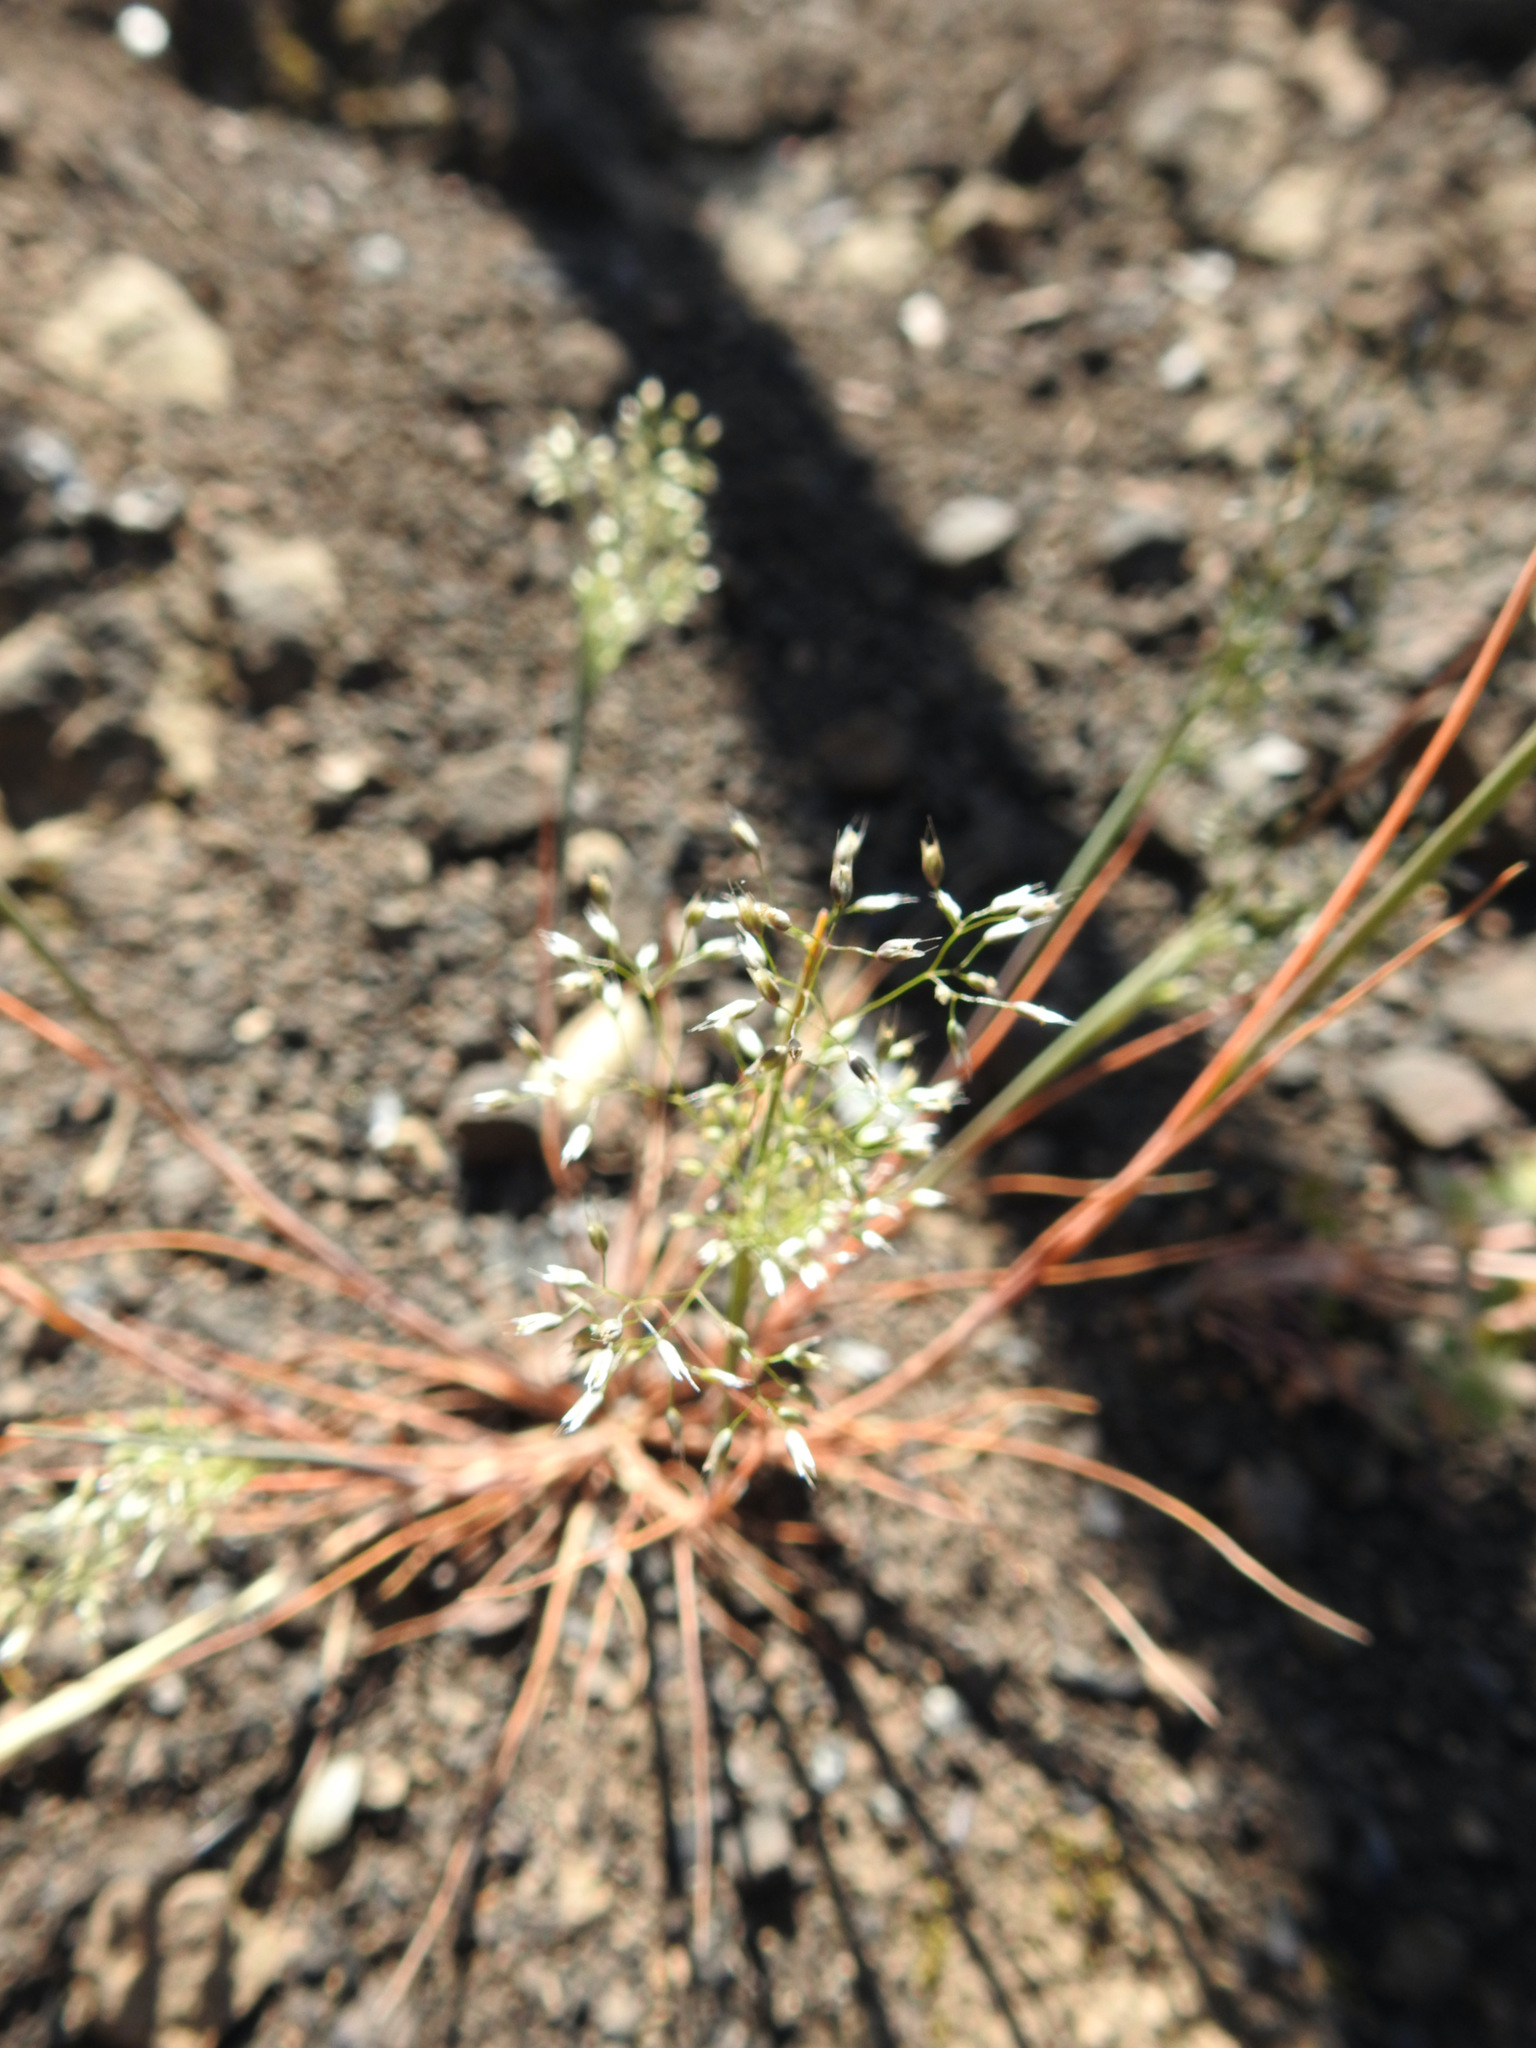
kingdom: Plantae
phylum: Tracheophyta
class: Liliopsida
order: Poales
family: Poaceae
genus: Aira
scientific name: Aira caryophyllea
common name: Silver hairgrass
